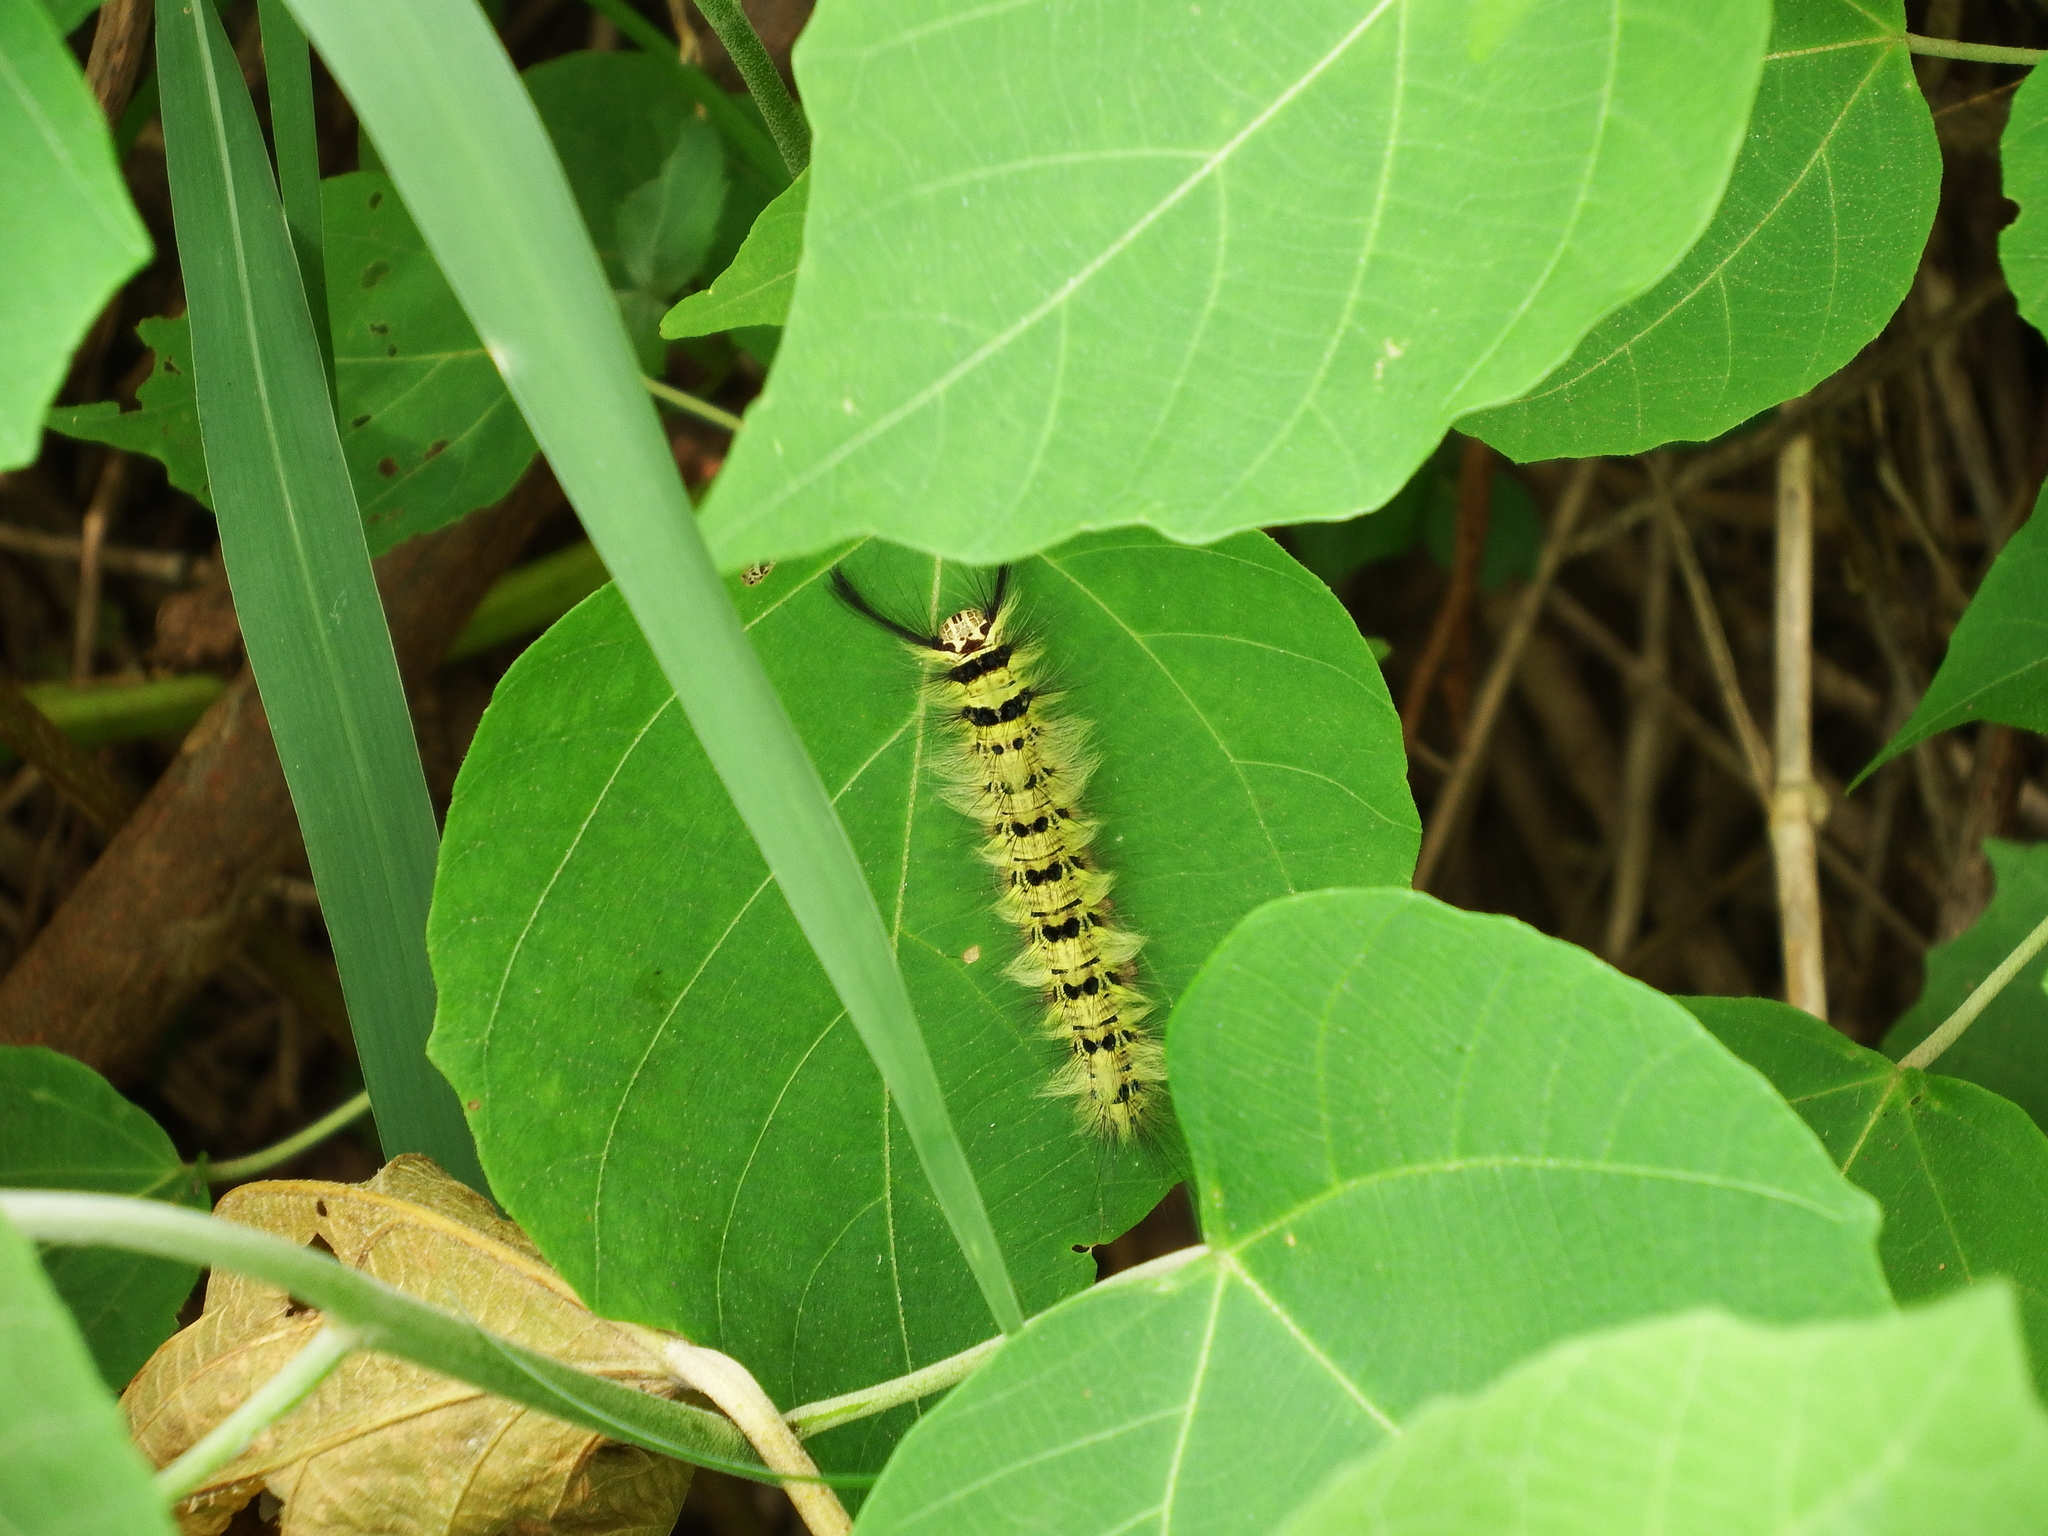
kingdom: Animalia
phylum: Arthropoda
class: Insecta
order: Lepidoptera
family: Lasiocampidae
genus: Trabala
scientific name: Trabala vishnou
